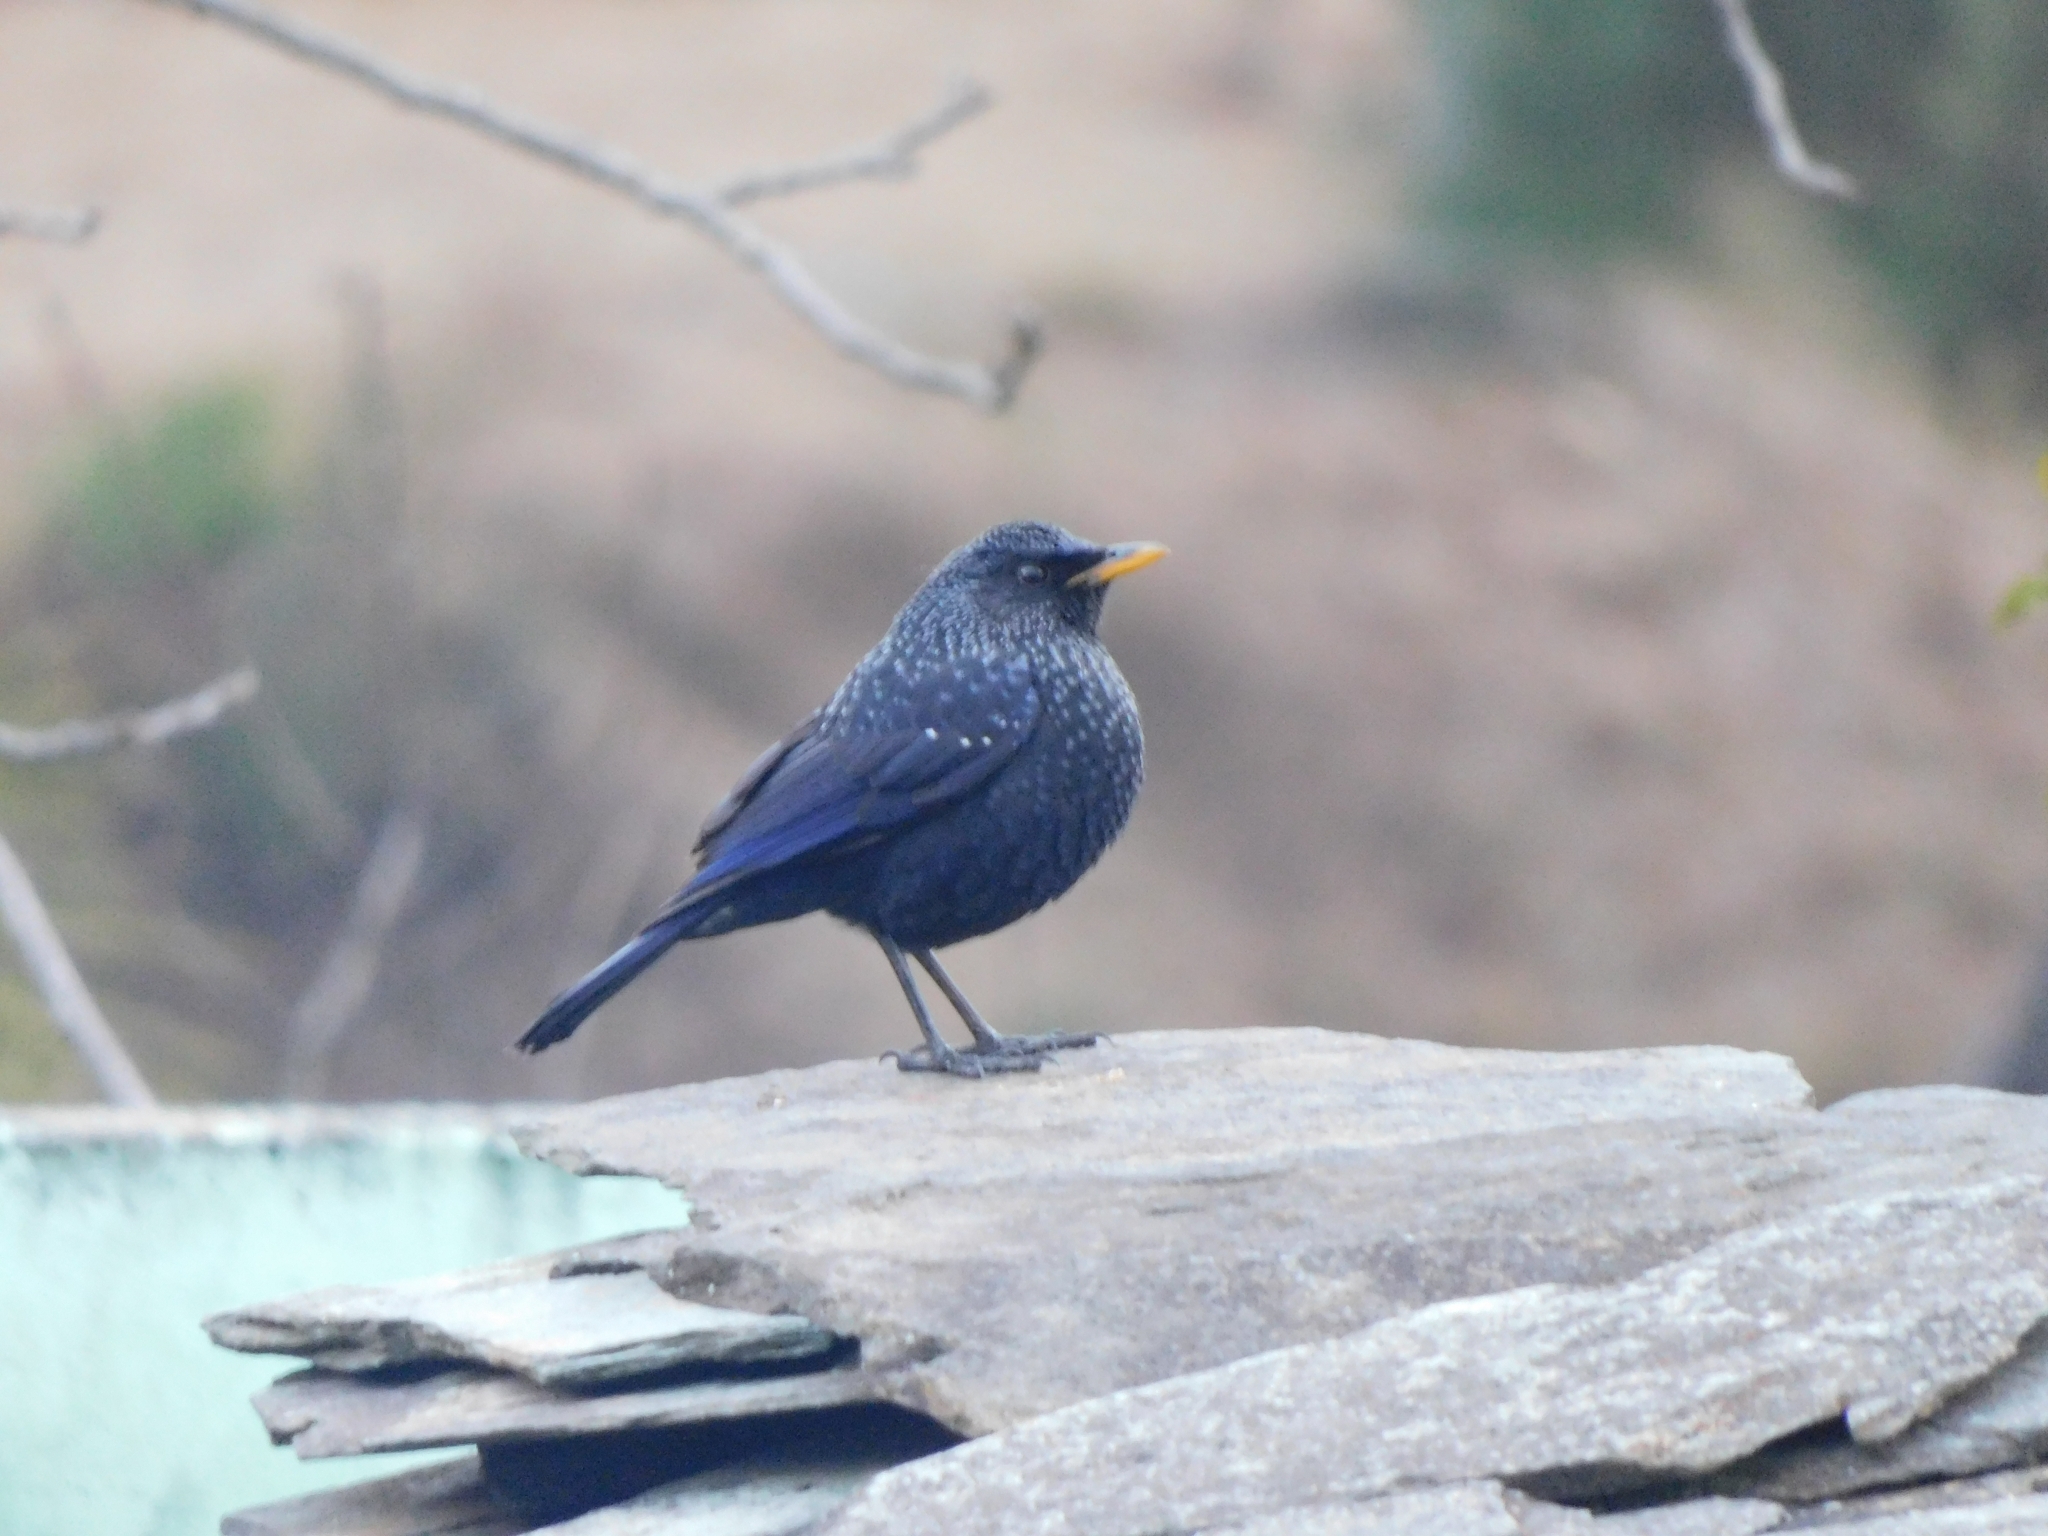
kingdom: Animalia
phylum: Chordata
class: Aves
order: Passeriformes
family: Muscicapidae
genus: Myophonus
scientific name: Myophonus caeruleus
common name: Blue whistling-thrush
